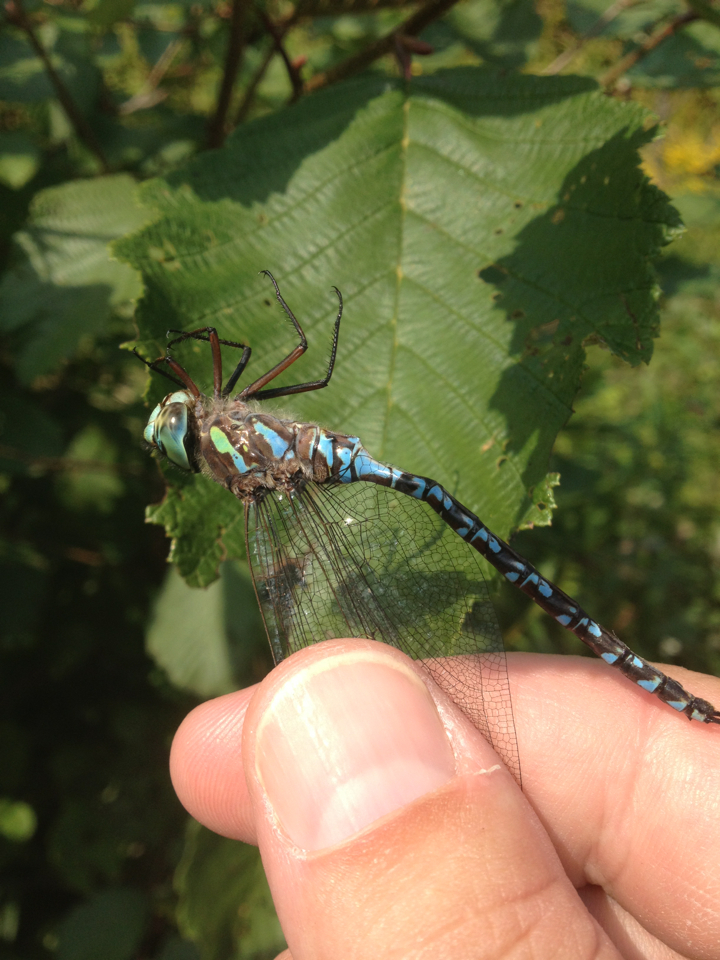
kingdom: Animalia
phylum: Arthropoda
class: Insecta
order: Odonata
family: Aeshnidae
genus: Aeshna
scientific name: Aeshna canadensis
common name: Canada darner
